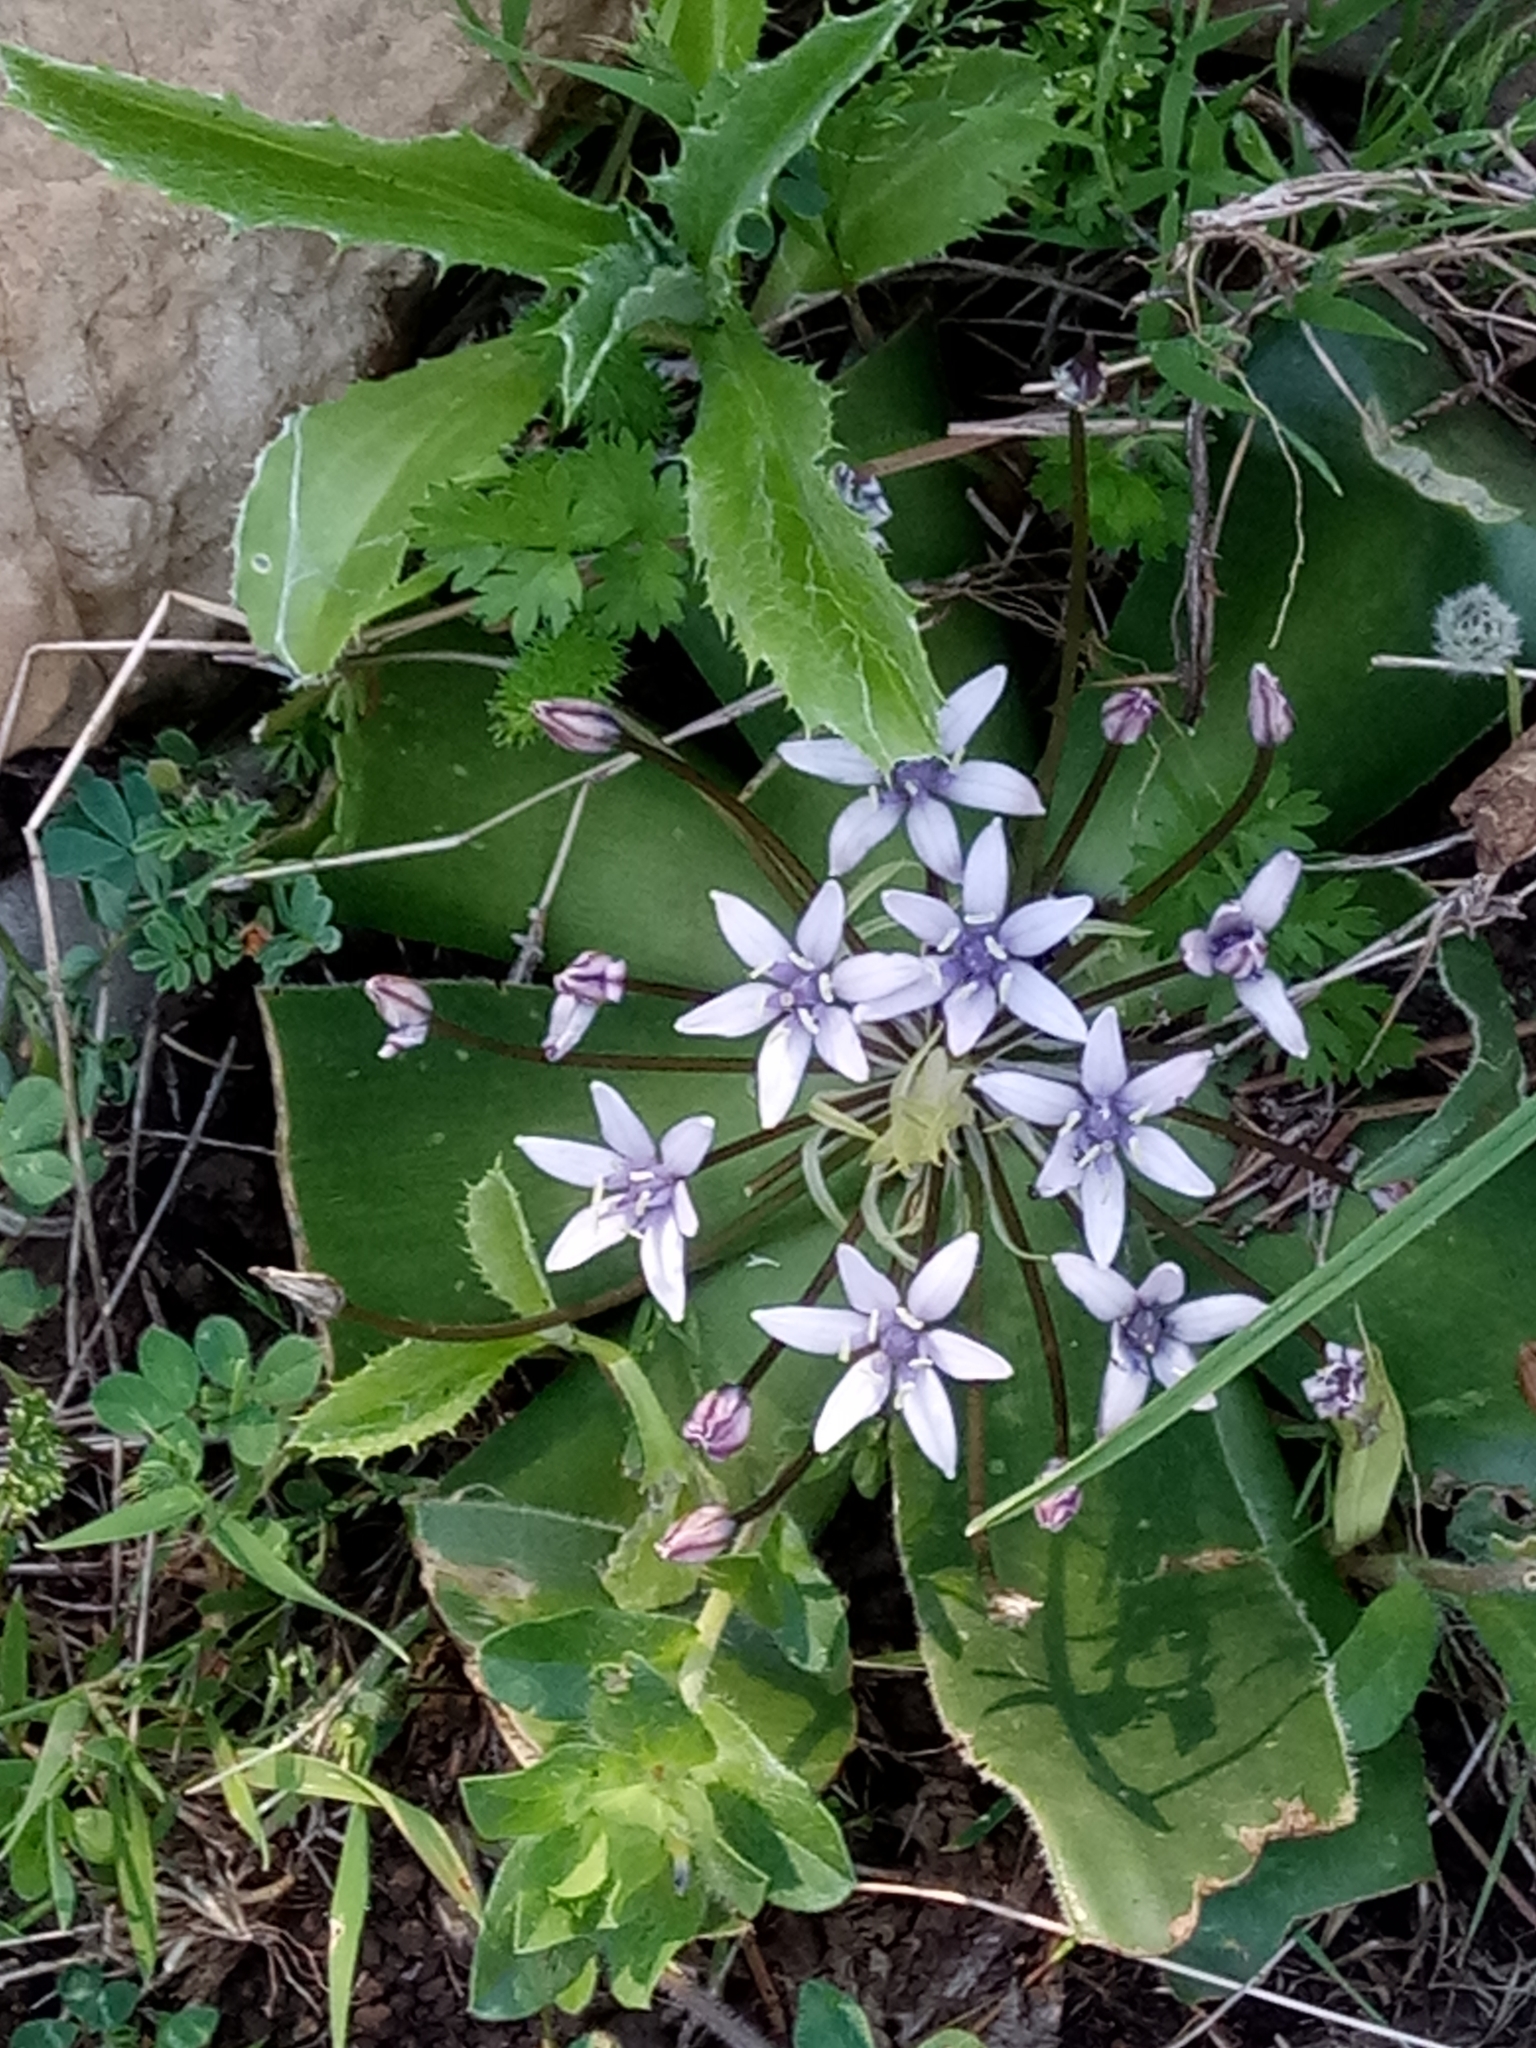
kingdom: Plantae
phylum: Tracheophyta
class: Liliopsida
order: Asparagales
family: Asparagaceae
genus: Scilla
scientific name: Scilla peruviana
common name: Portuguese squill
